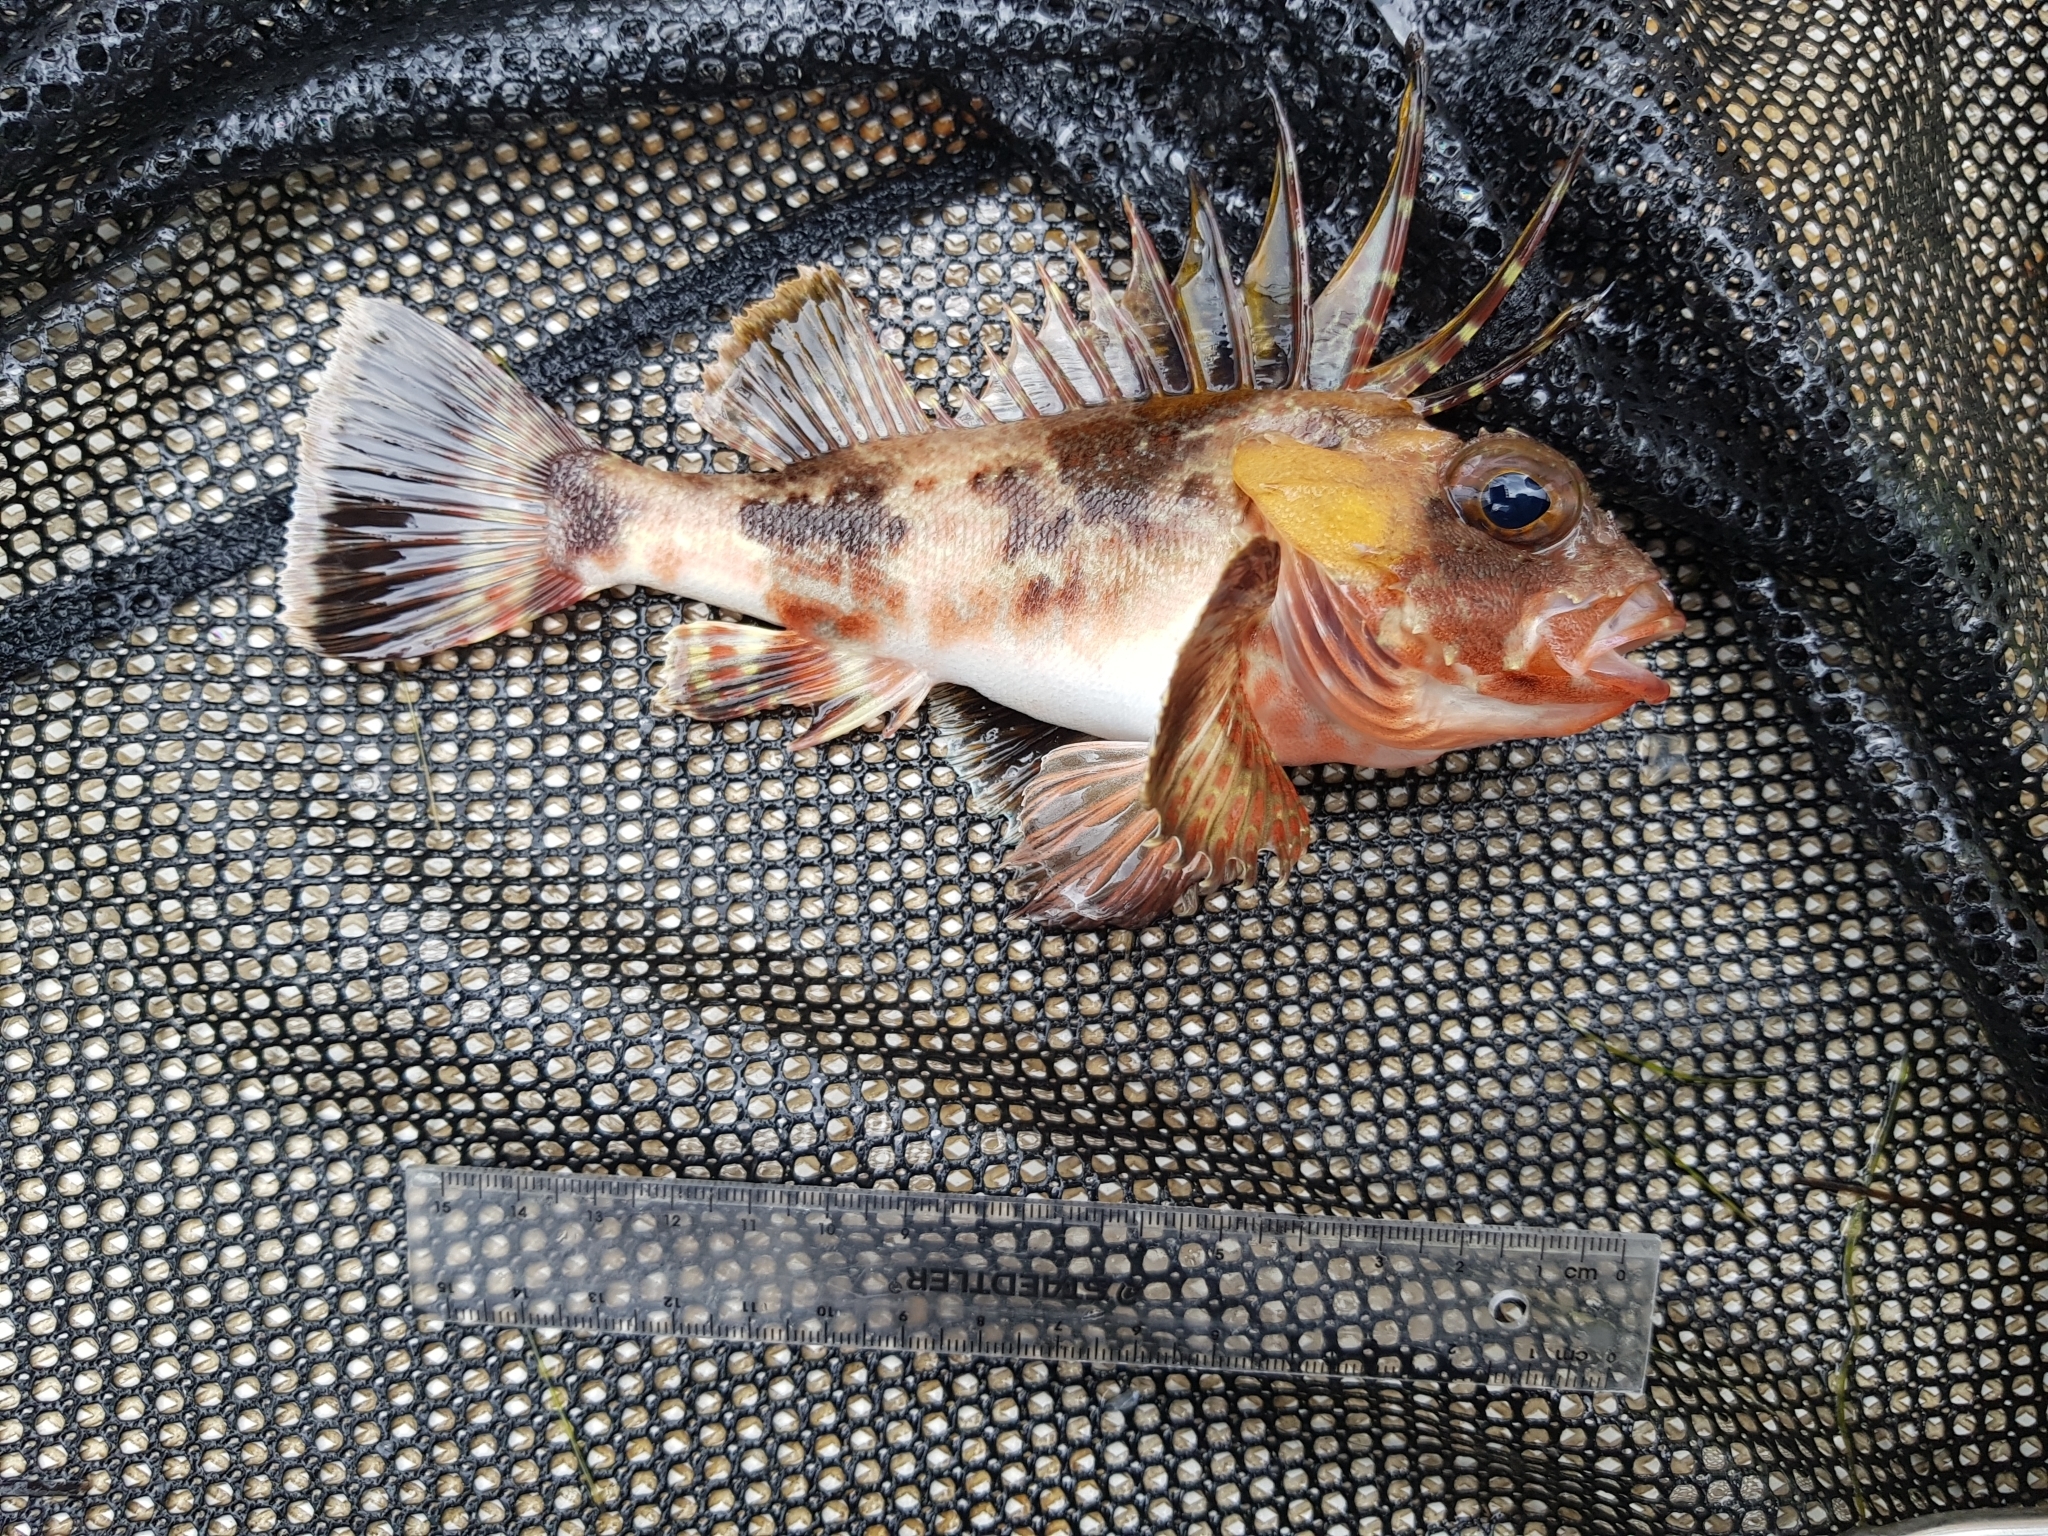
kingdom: Animalia
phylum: Chordata
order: Scorpaeniformes
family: Neosebastidae
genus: Neosebastes
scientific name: Neosebastes scorpaenoides
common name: Cobbler perch
